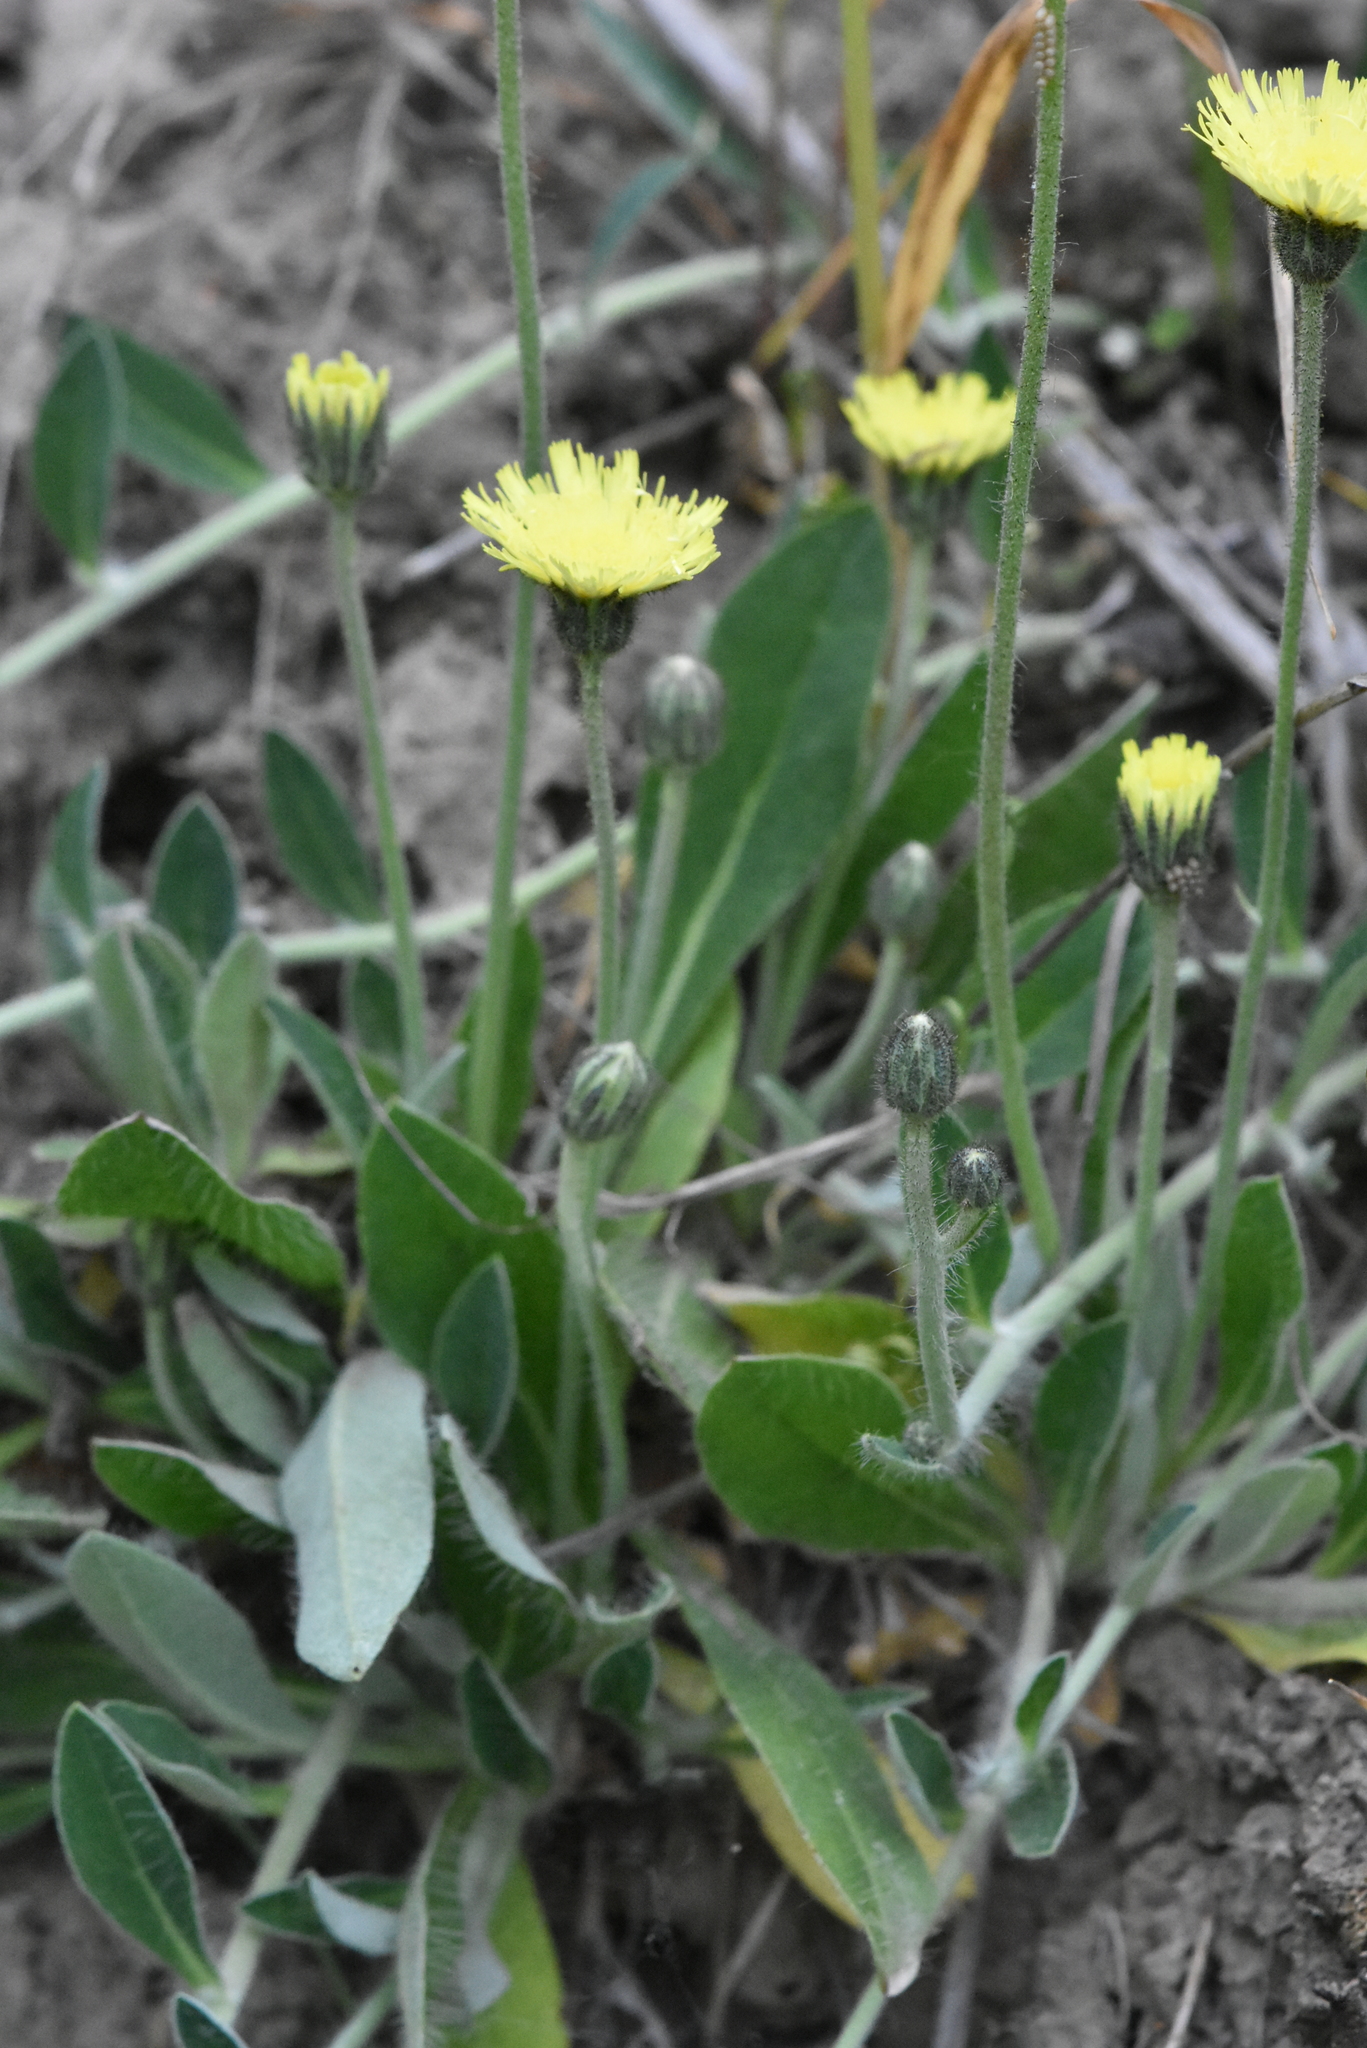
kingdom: Plantae
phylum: Tracheophyta
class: Magnoliopsida
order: Asterales
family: Asteraceae
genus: Pilosella
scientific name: Pilosella officinarum
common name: Mouse-ear hawkweed
